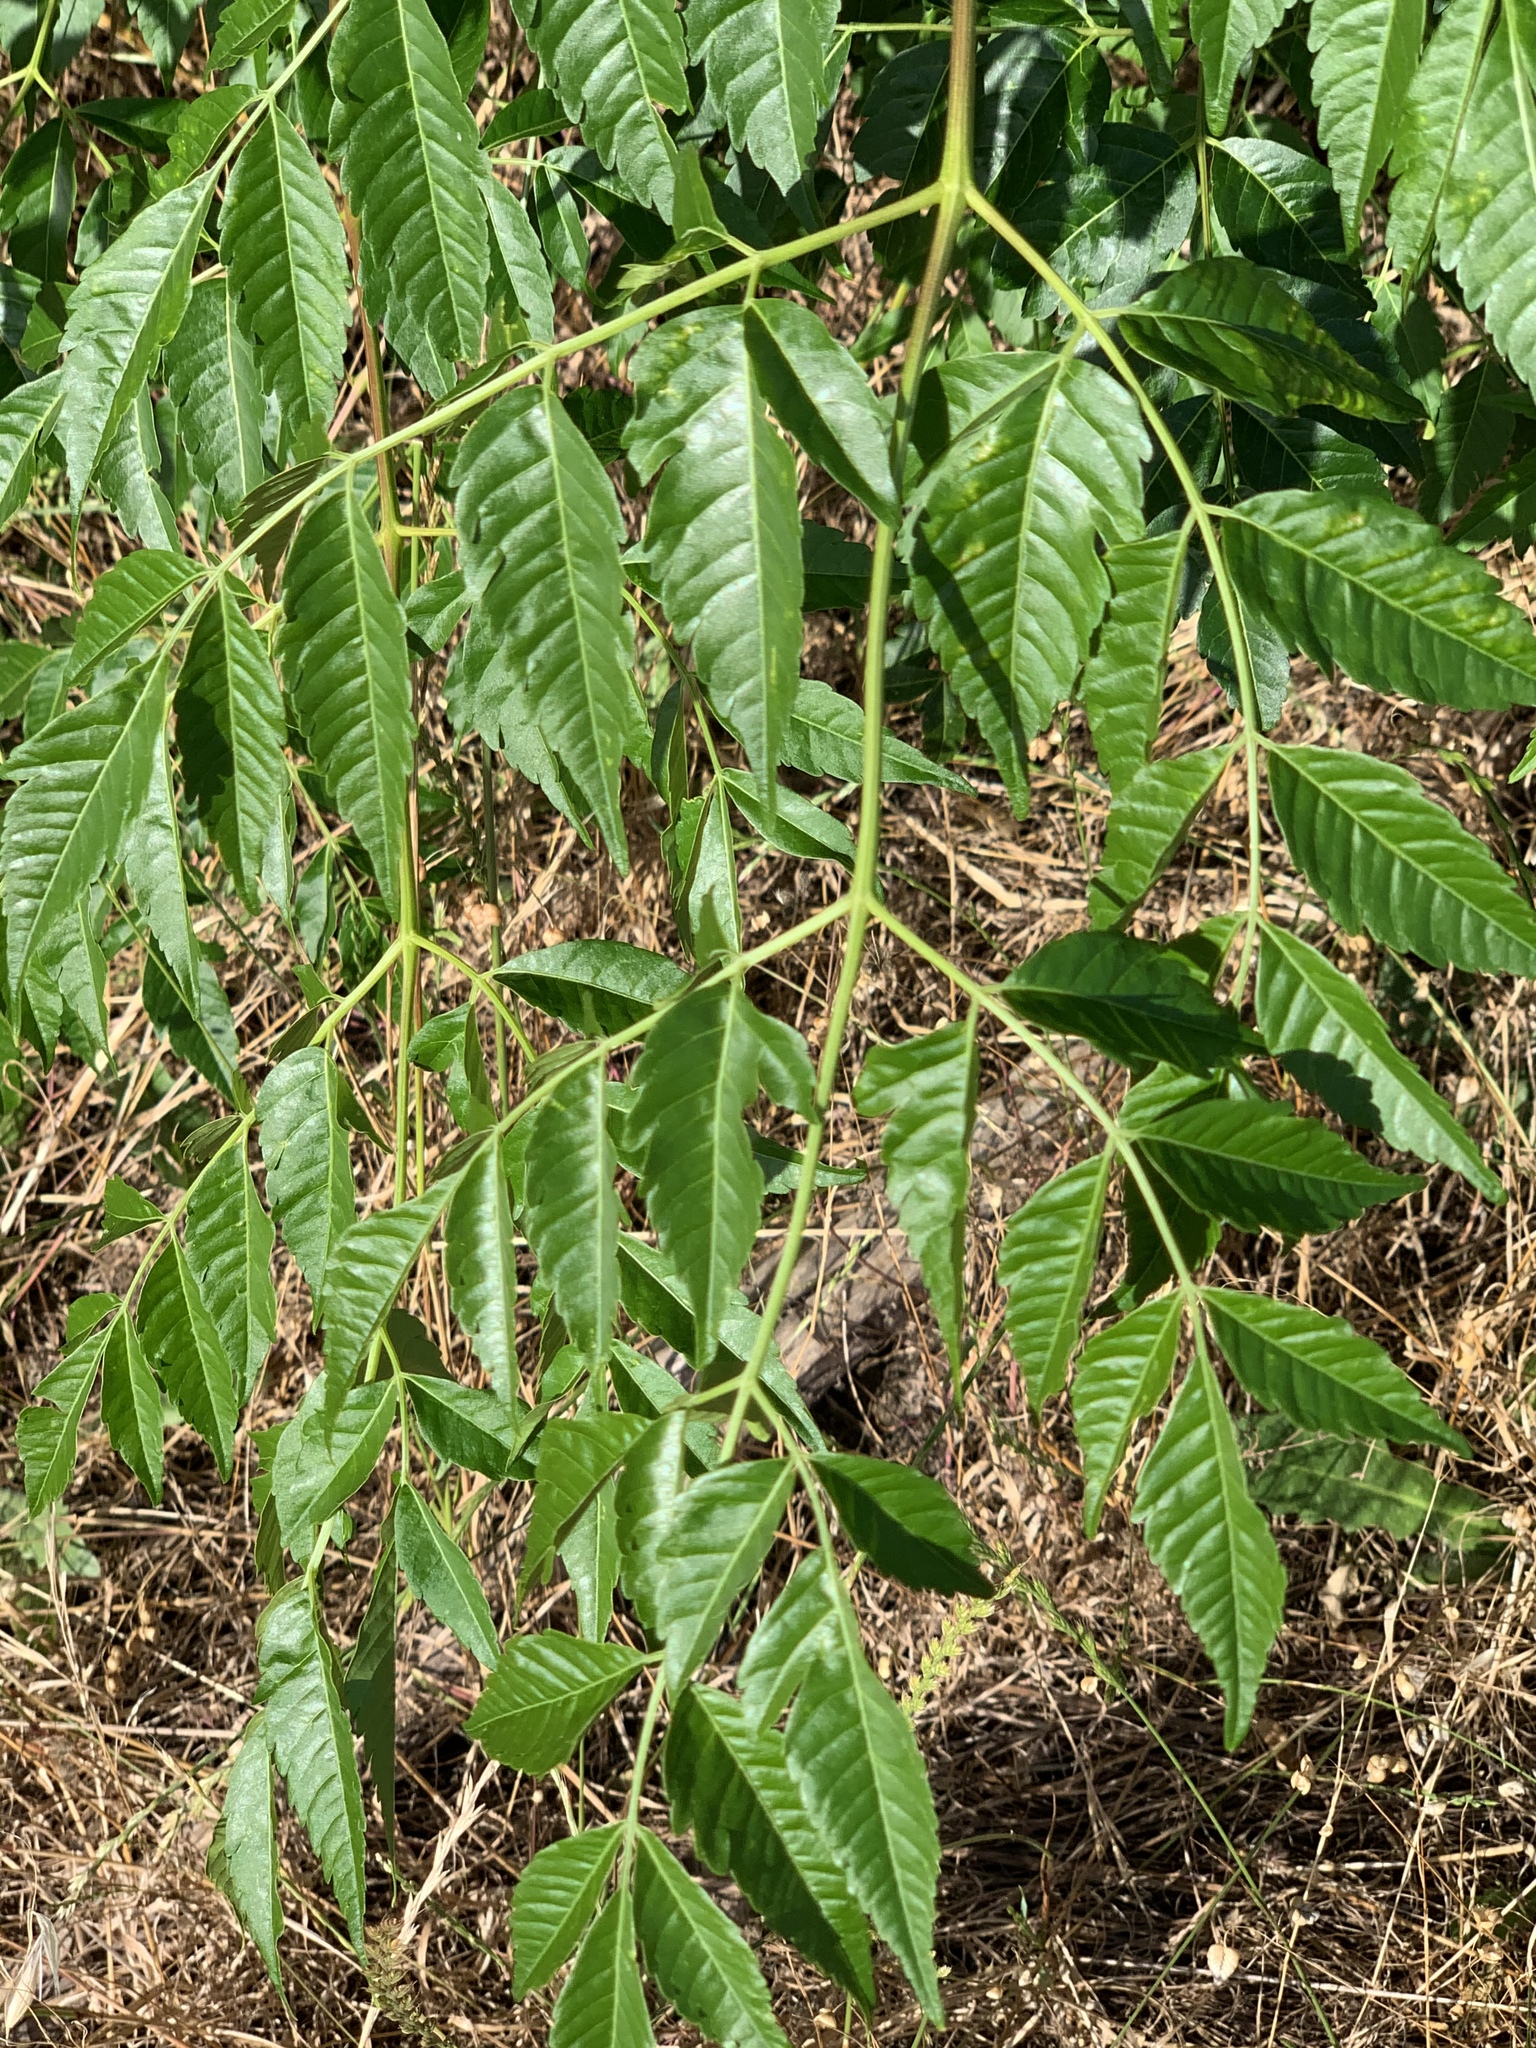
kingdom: Plantae
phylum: Tracheophyta
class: Magnoliopsida
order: Sapindales
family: Meliaceae
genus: Melia
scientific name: Melia azedarach
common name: Chinaberrytree
